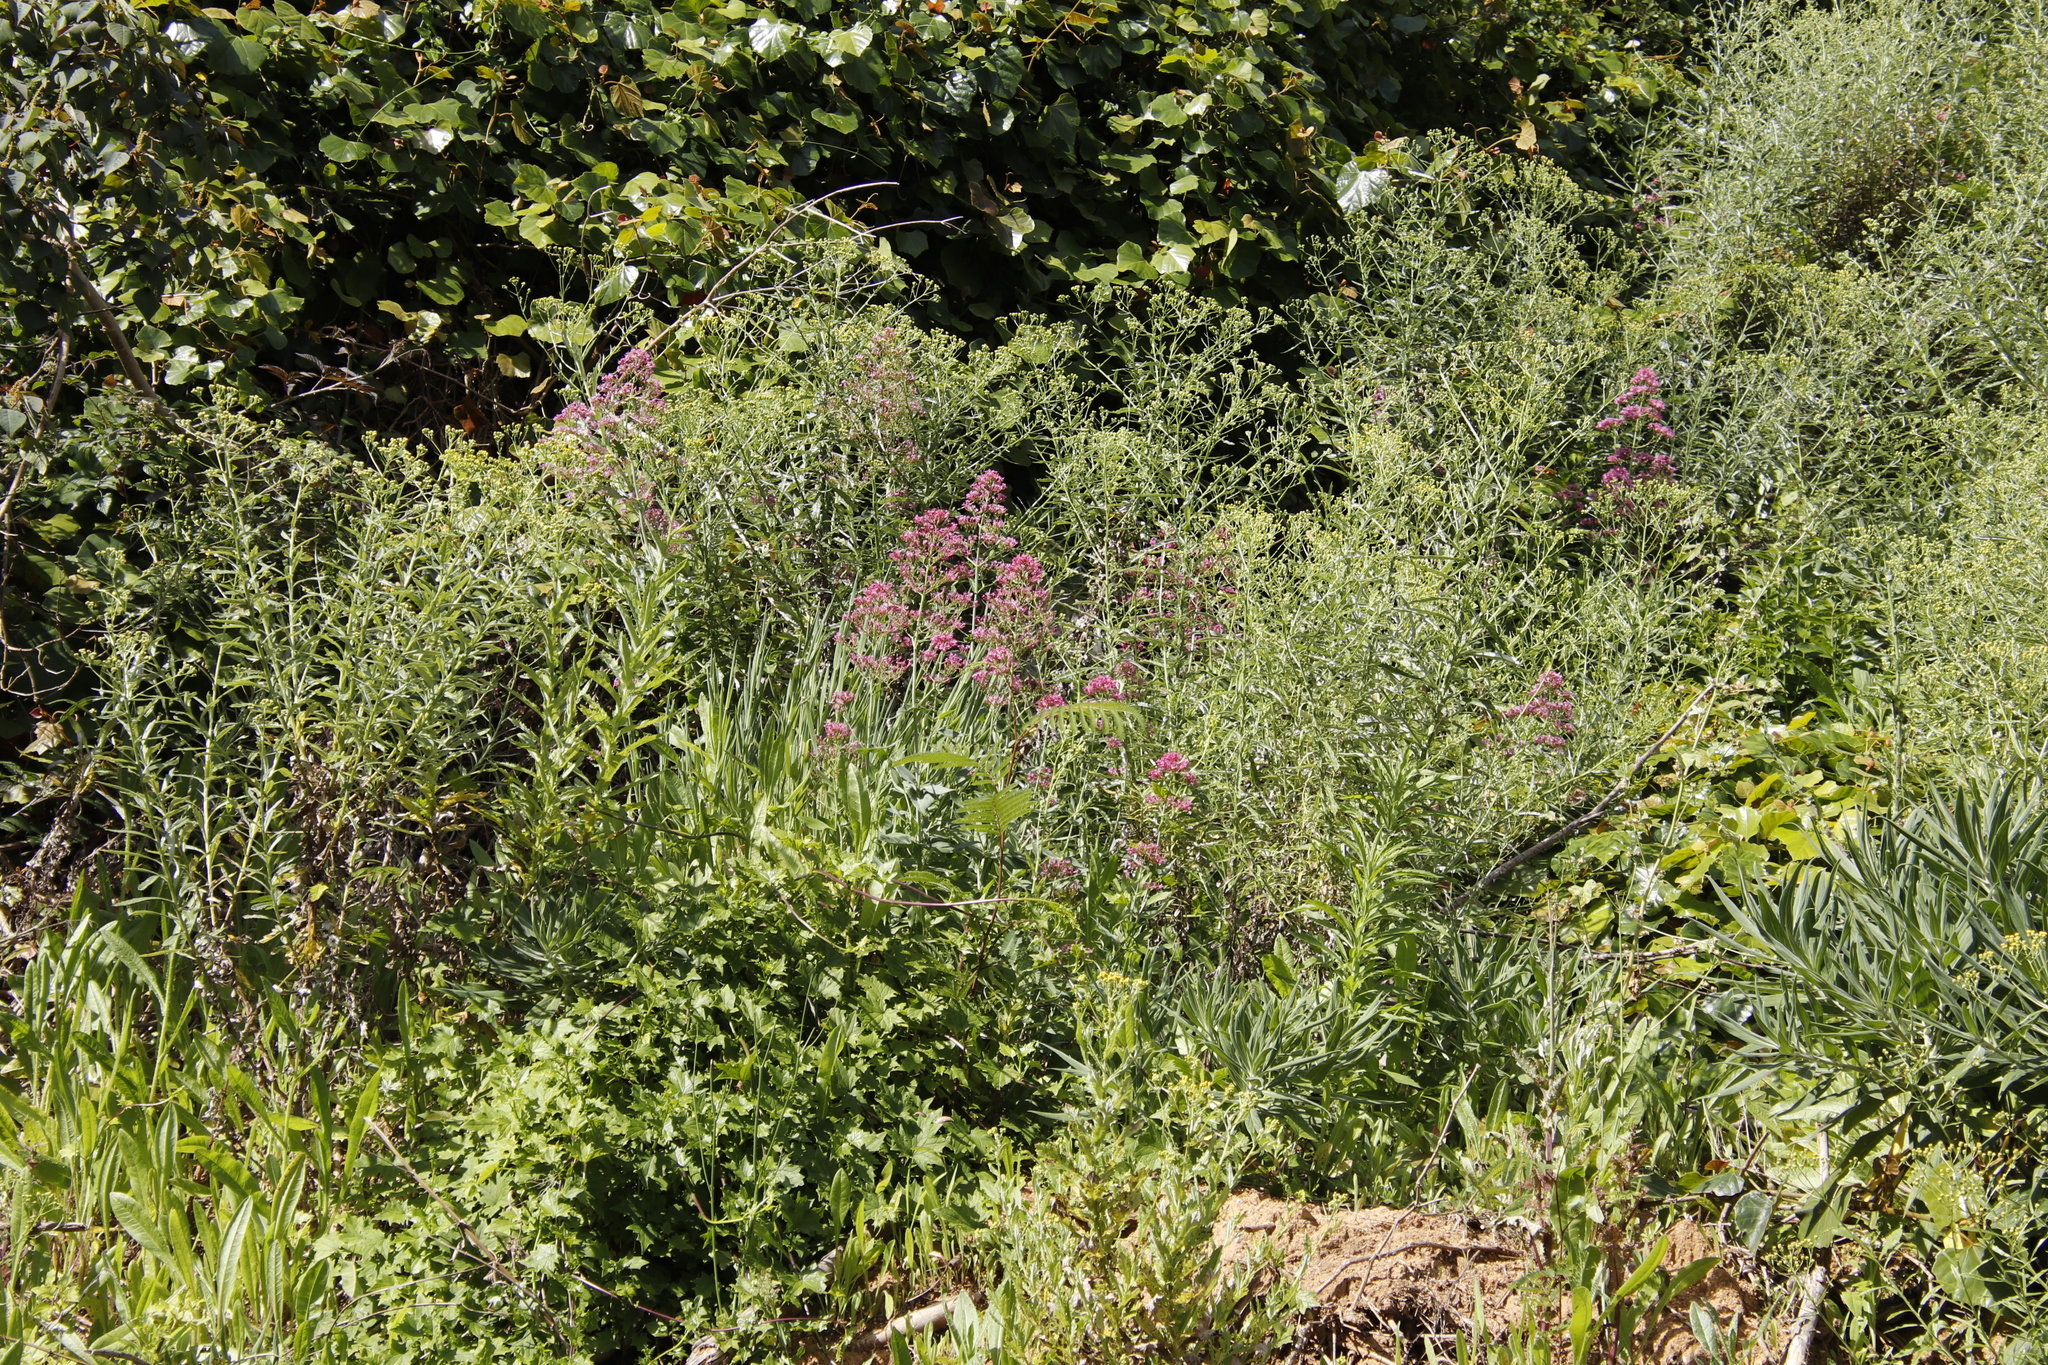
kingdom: Plantae
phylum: Tracheophyta
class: Magnoliopsida
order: Dipsacales
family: Caprifoliaceae
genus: Centranthus
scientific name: Centranthus ruber
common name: Red valerian
